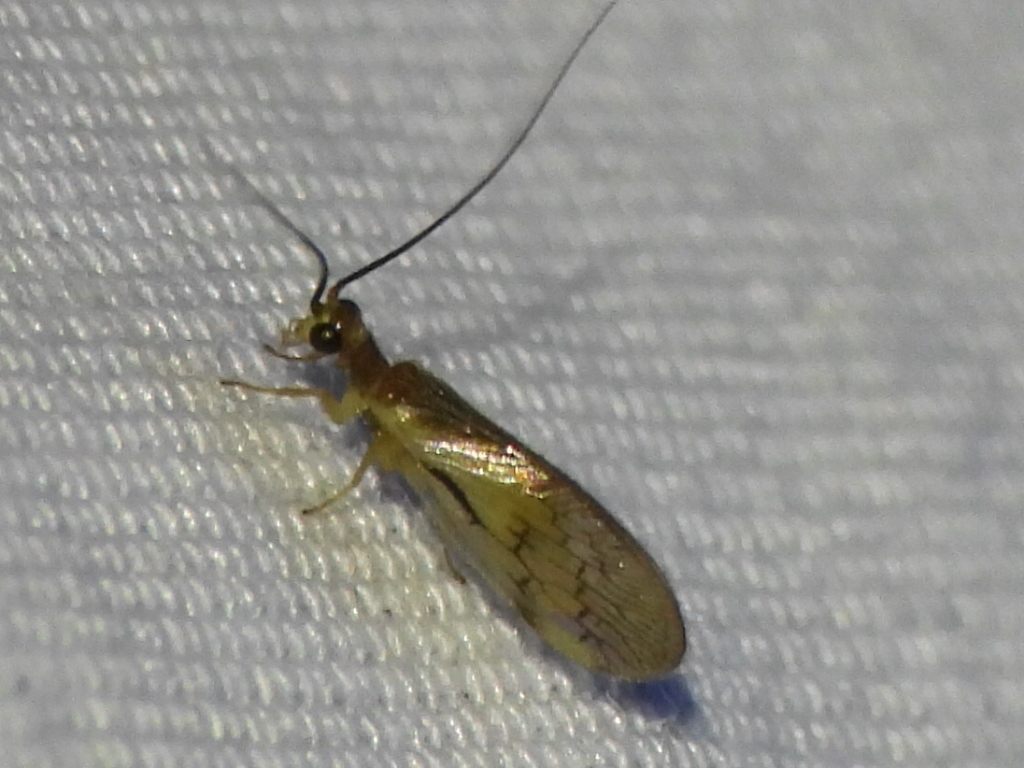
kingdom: Animalia
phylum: Arthropoda
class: Insecta
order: Neuroptera
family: Sisyridae
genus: Climacia
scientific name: Climacia chapini
